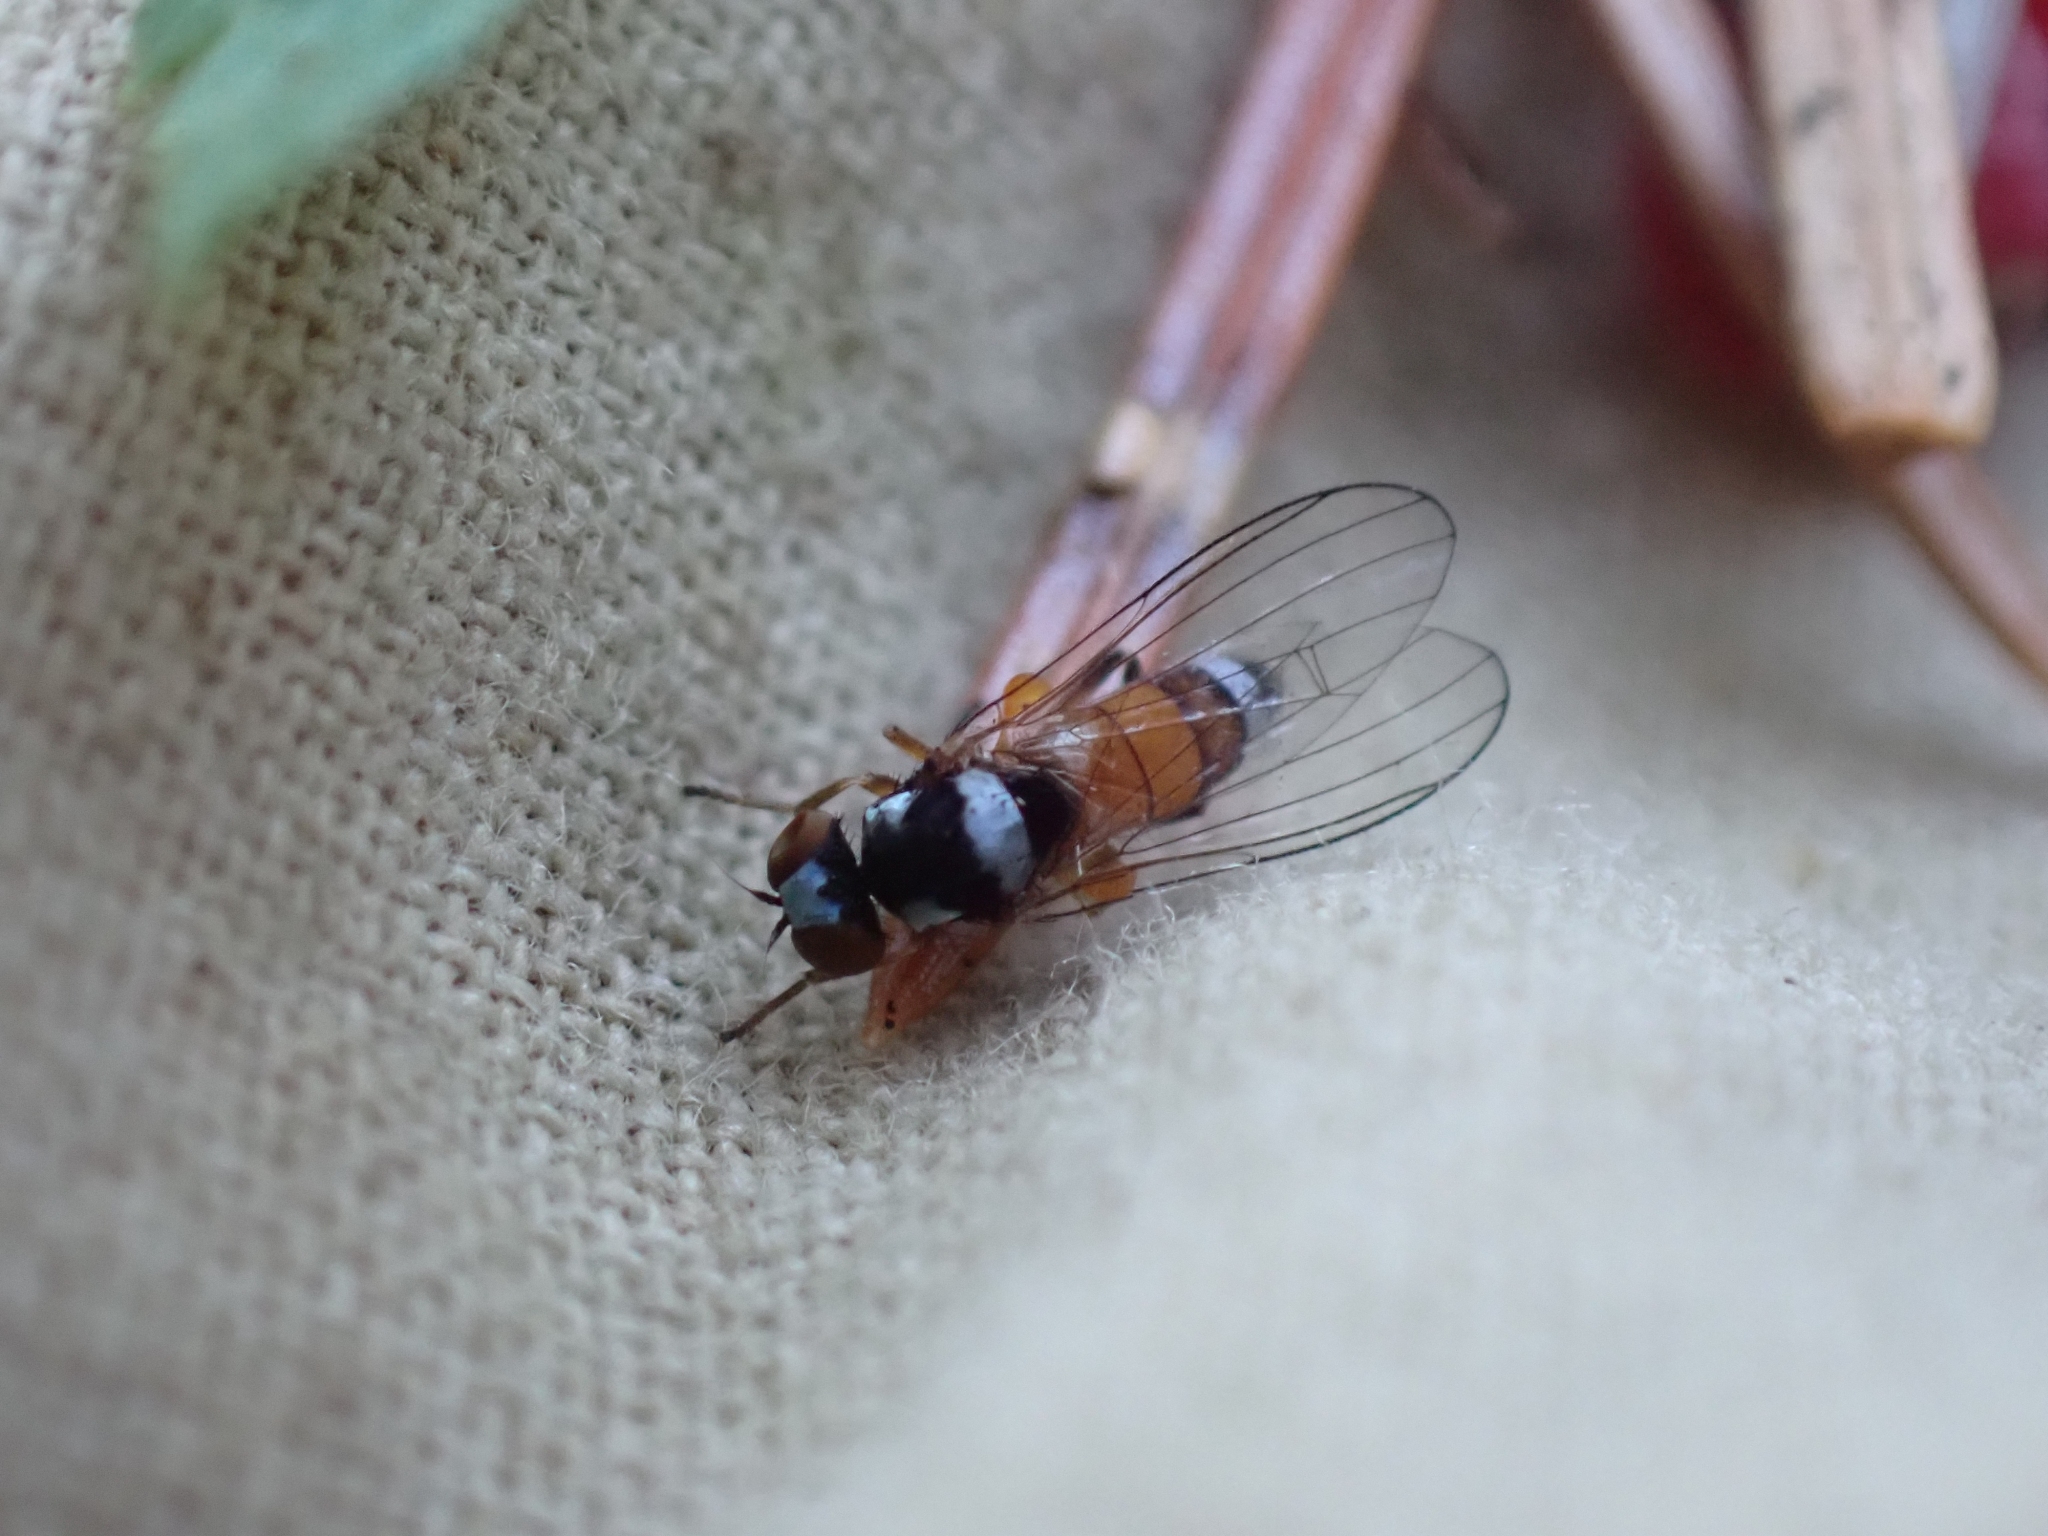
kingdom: Animalia
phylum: Arthropoda
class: Insecta
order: Diptera
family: Platypezidae
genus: Callomyia
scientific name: Callomyia velutina
